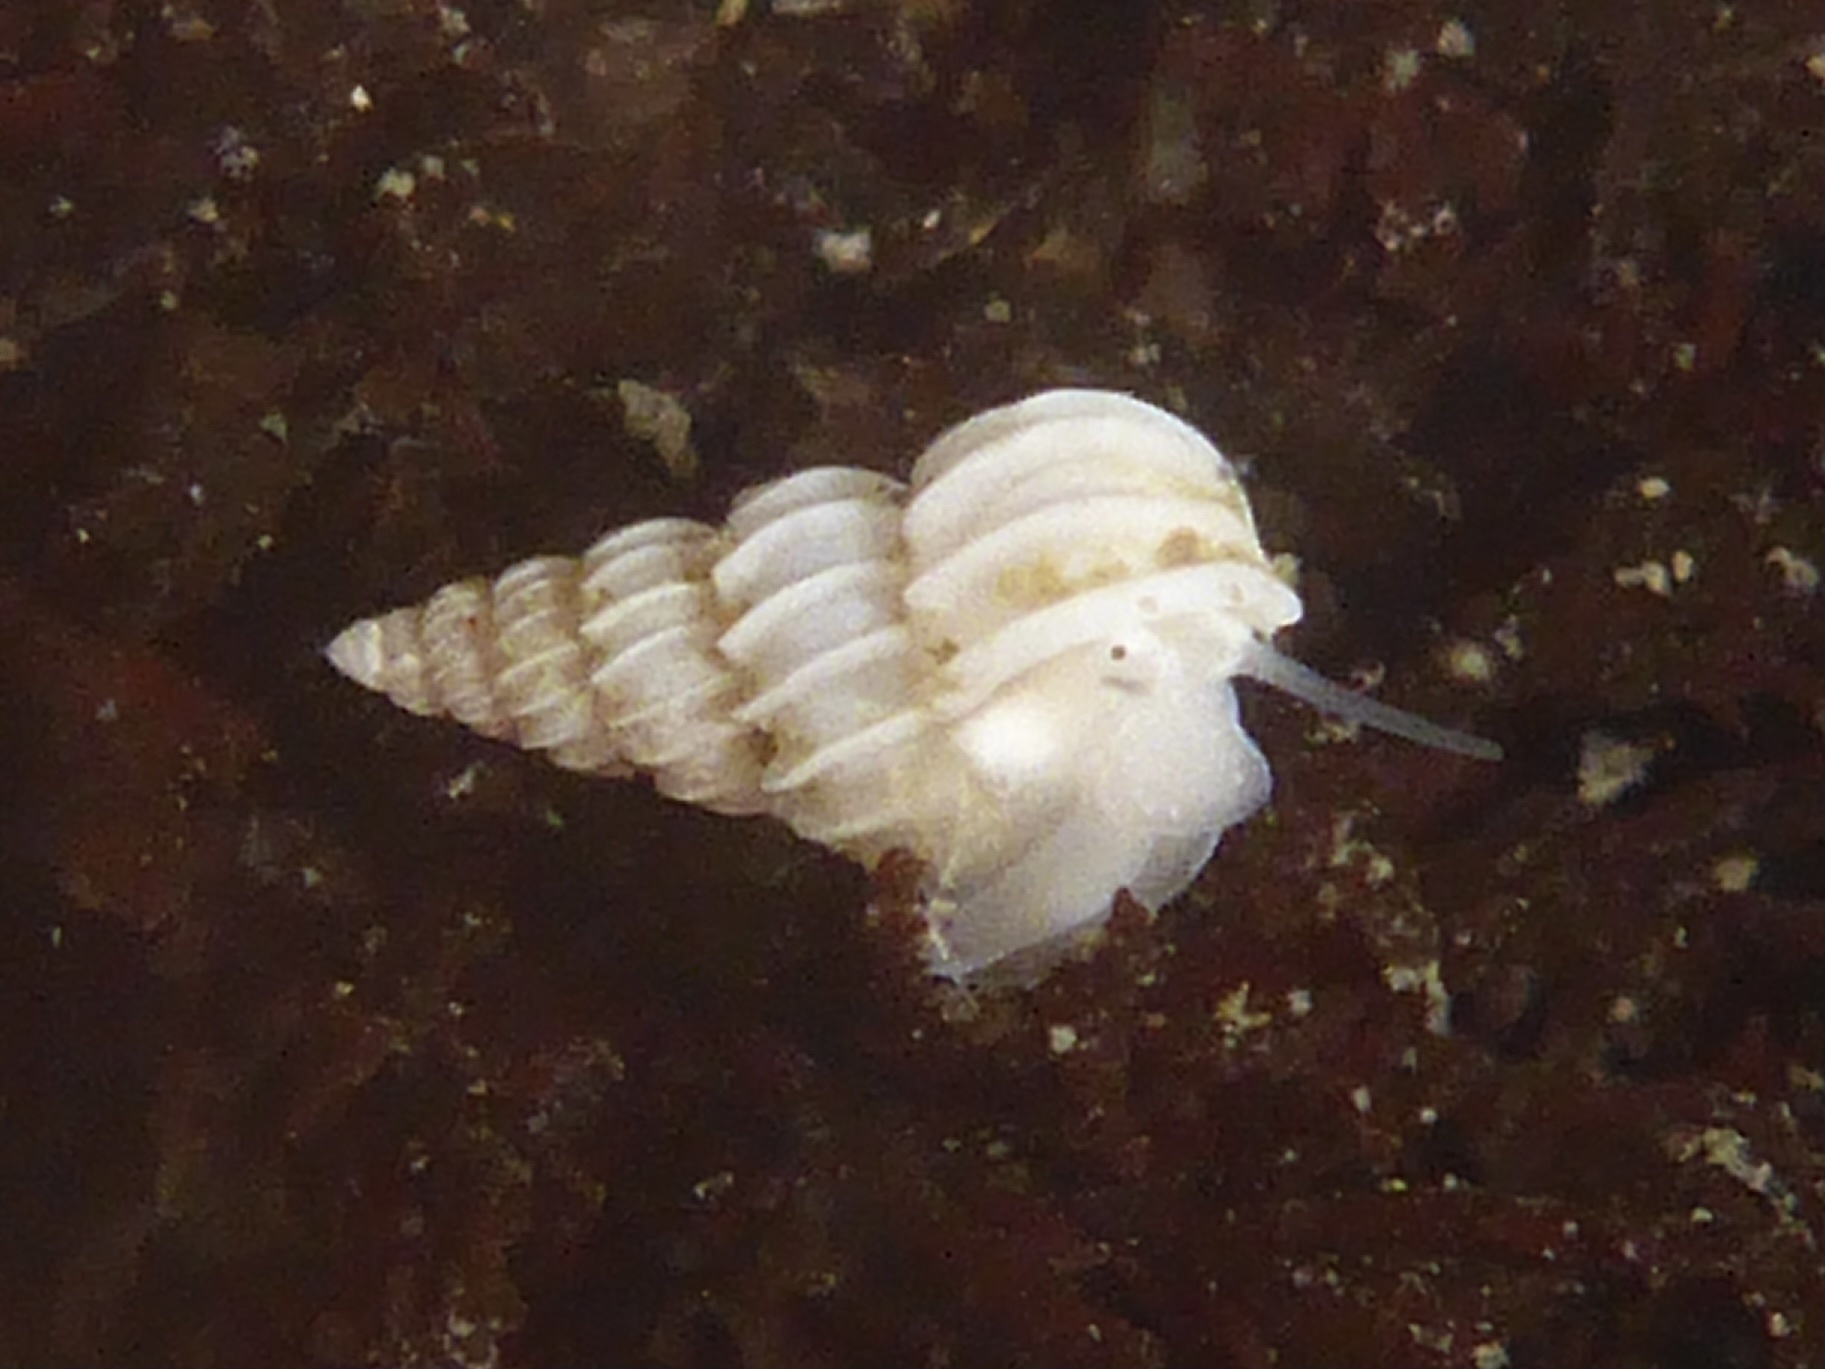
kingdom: Animalia
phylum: Mollusca
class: Gastropoda
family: Epitoniidae
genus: Epitonium
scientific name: Epitonium tinctum
